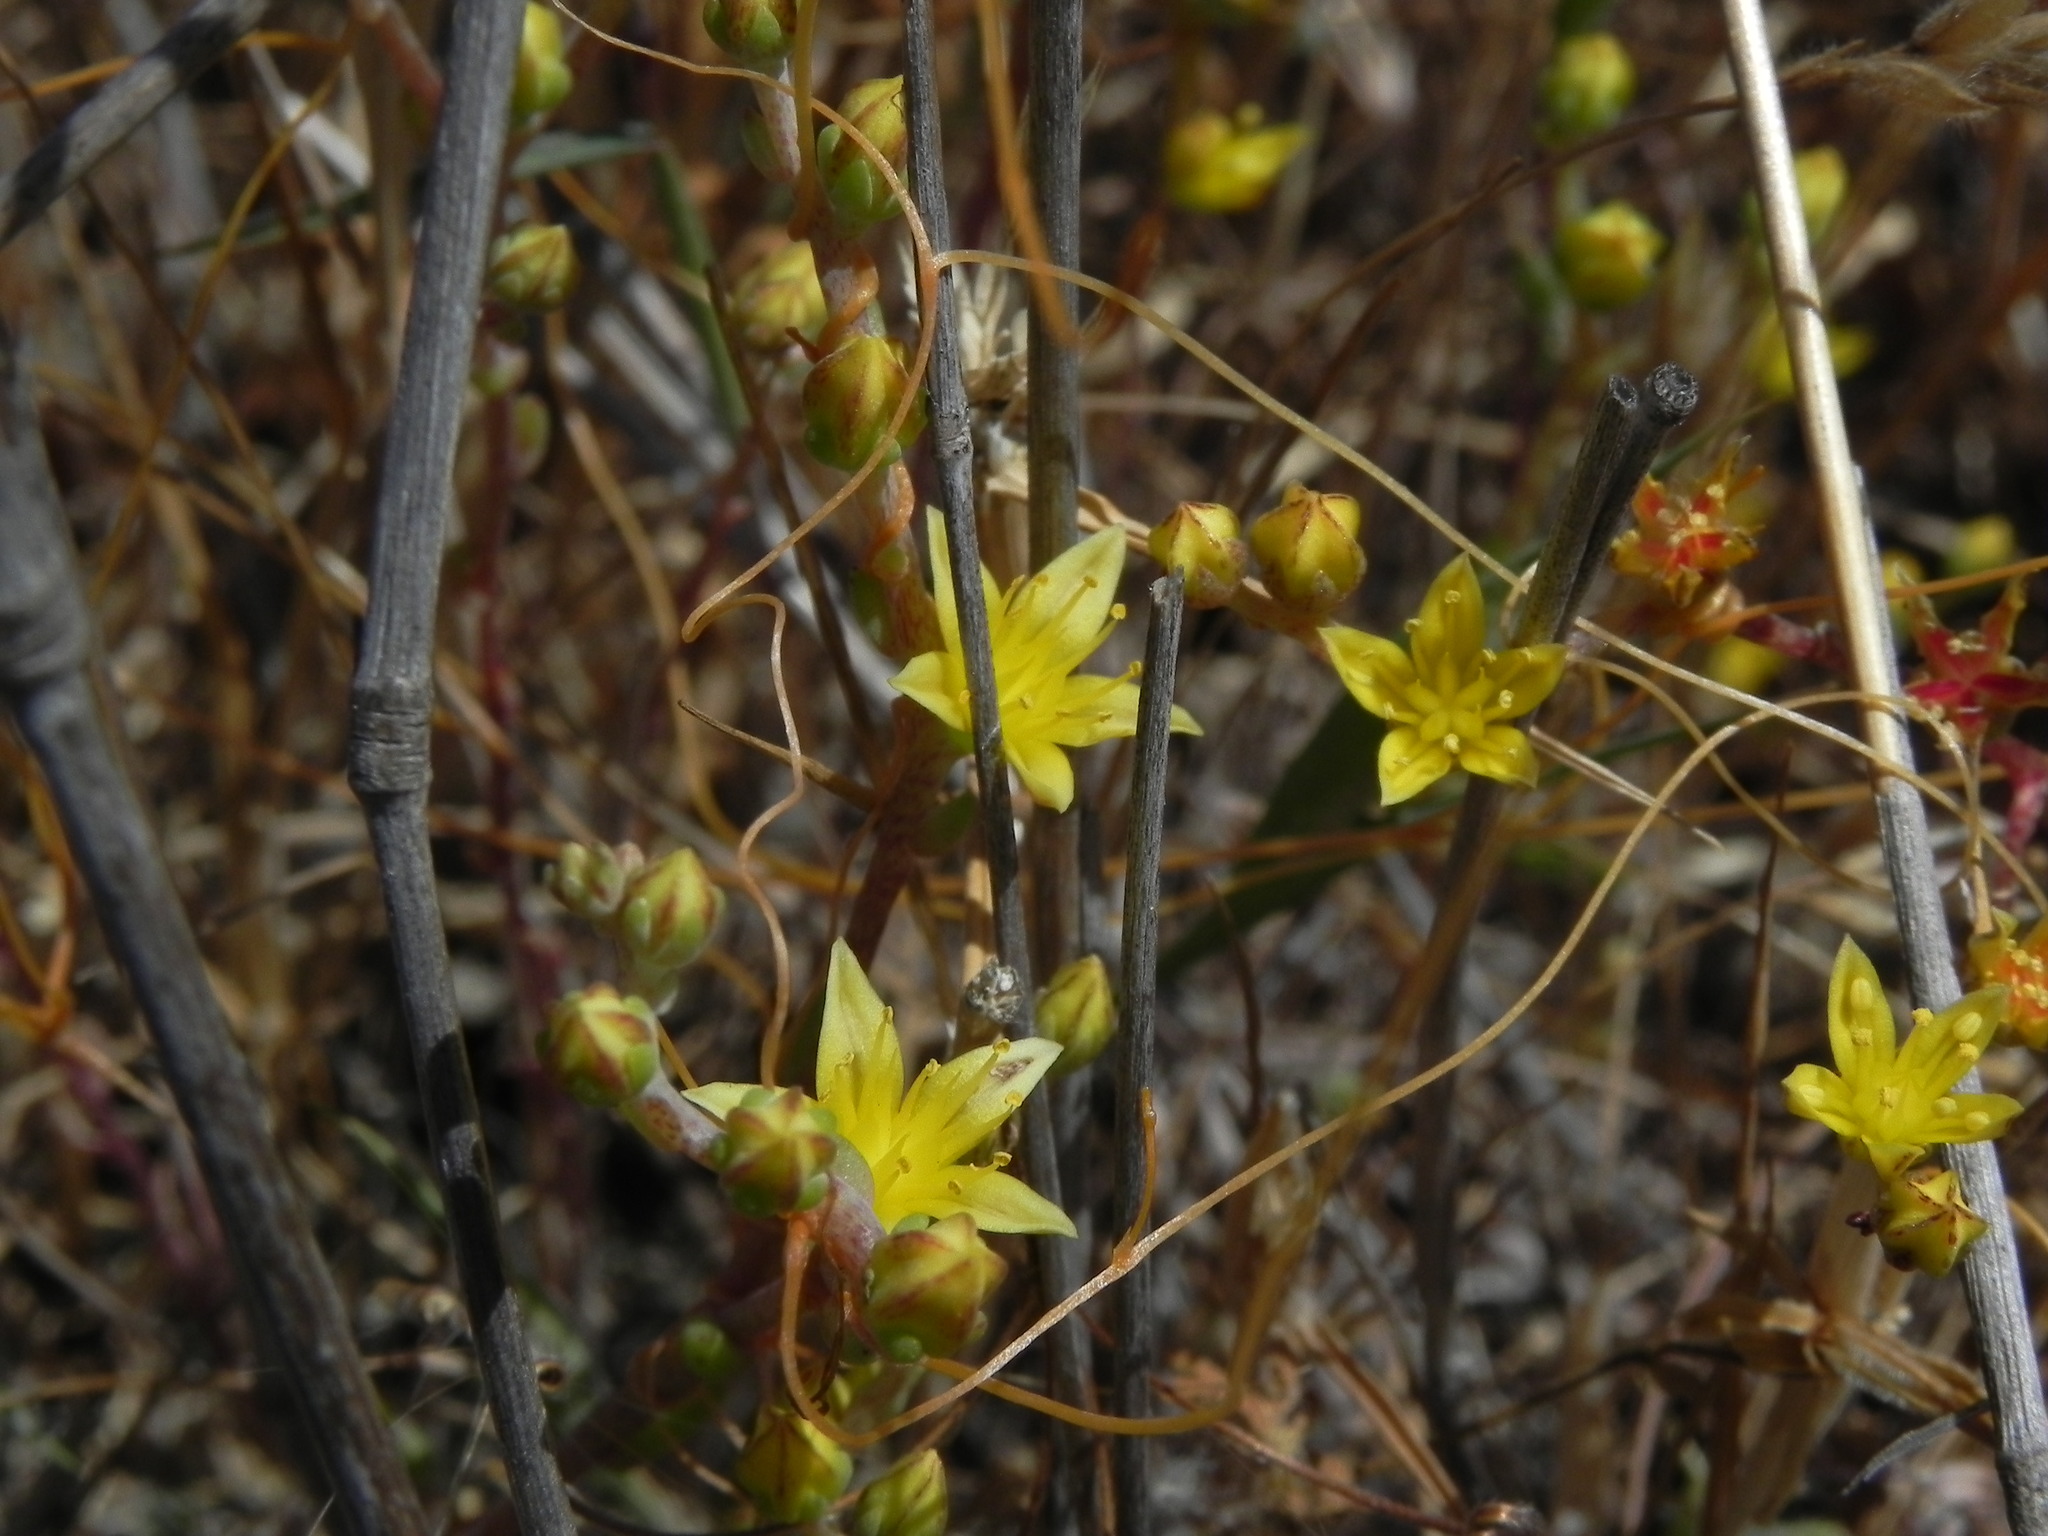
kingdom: Plantae
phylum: Tracheophyta
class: Magnoliopsida
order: Saxifragales
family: Crassulaceae
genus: Dudleya
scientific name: Dudleya variegata
